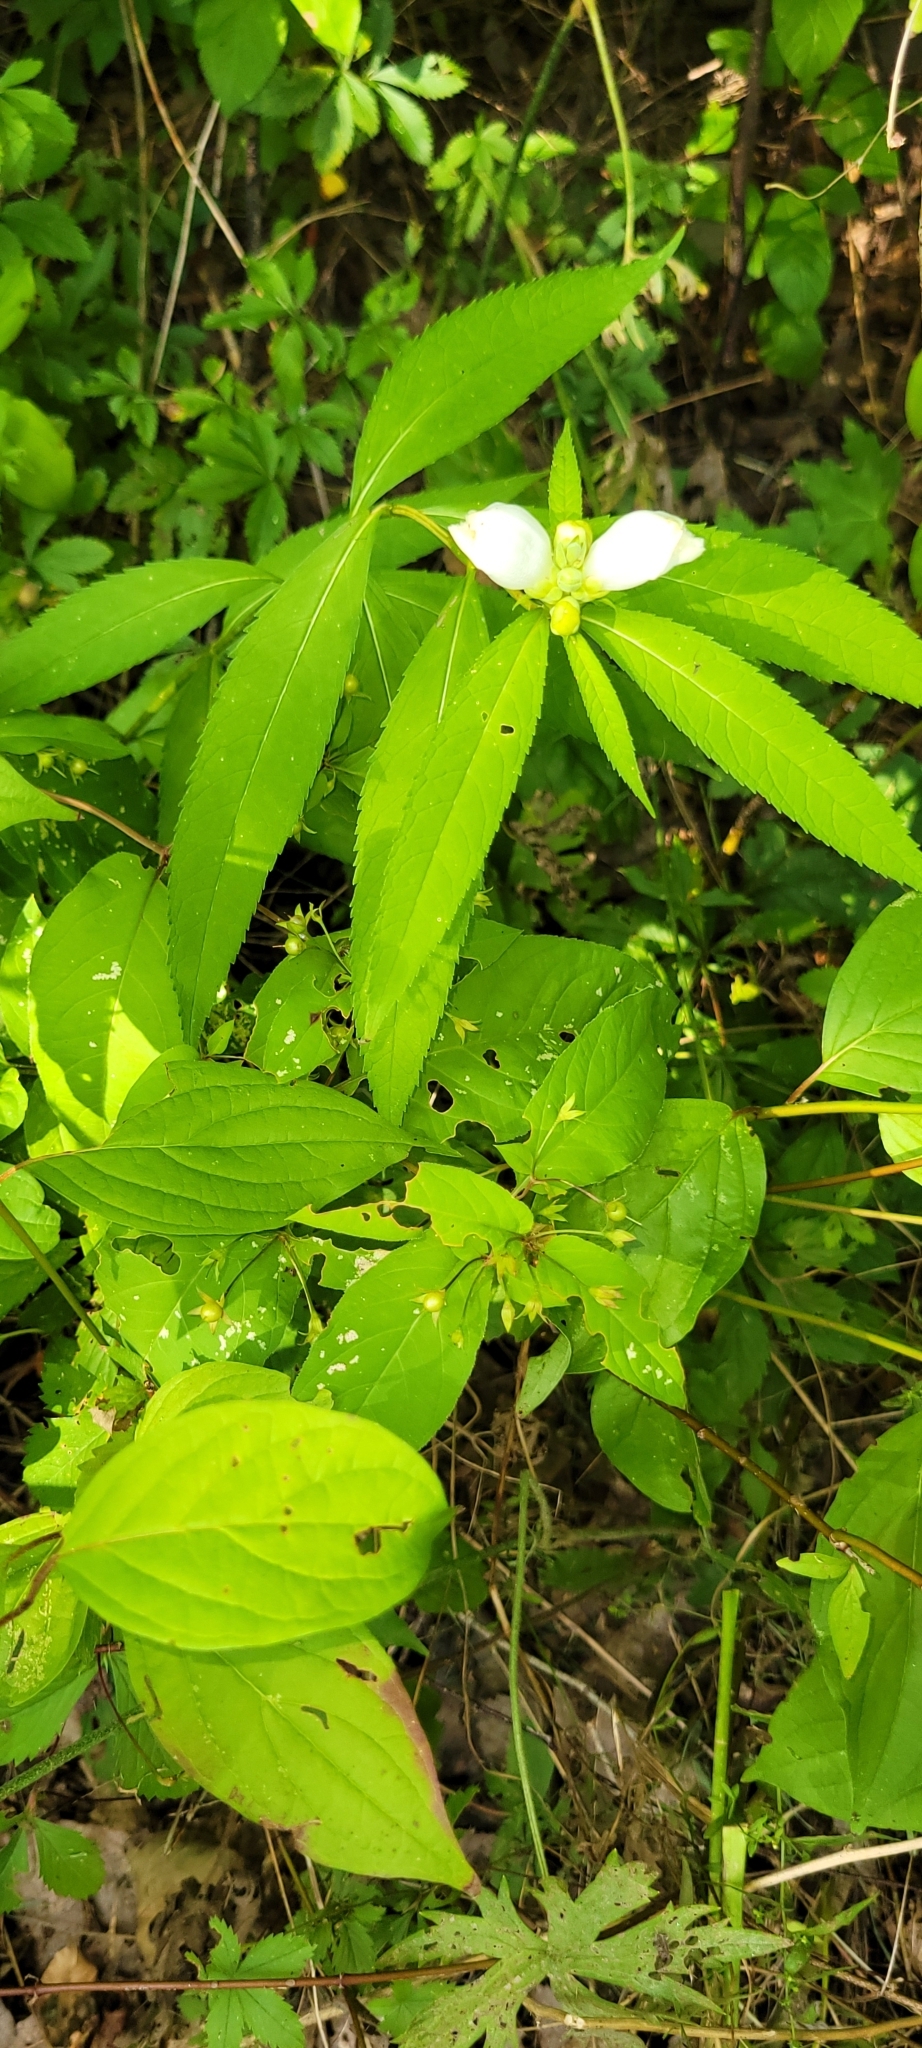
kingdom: Plantae
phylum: Tracheophyta
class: Magnoliopsida
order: Lamiales
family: Plantaginaceae
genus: Chelone
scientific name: Chelone glabra
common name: Snakehead
